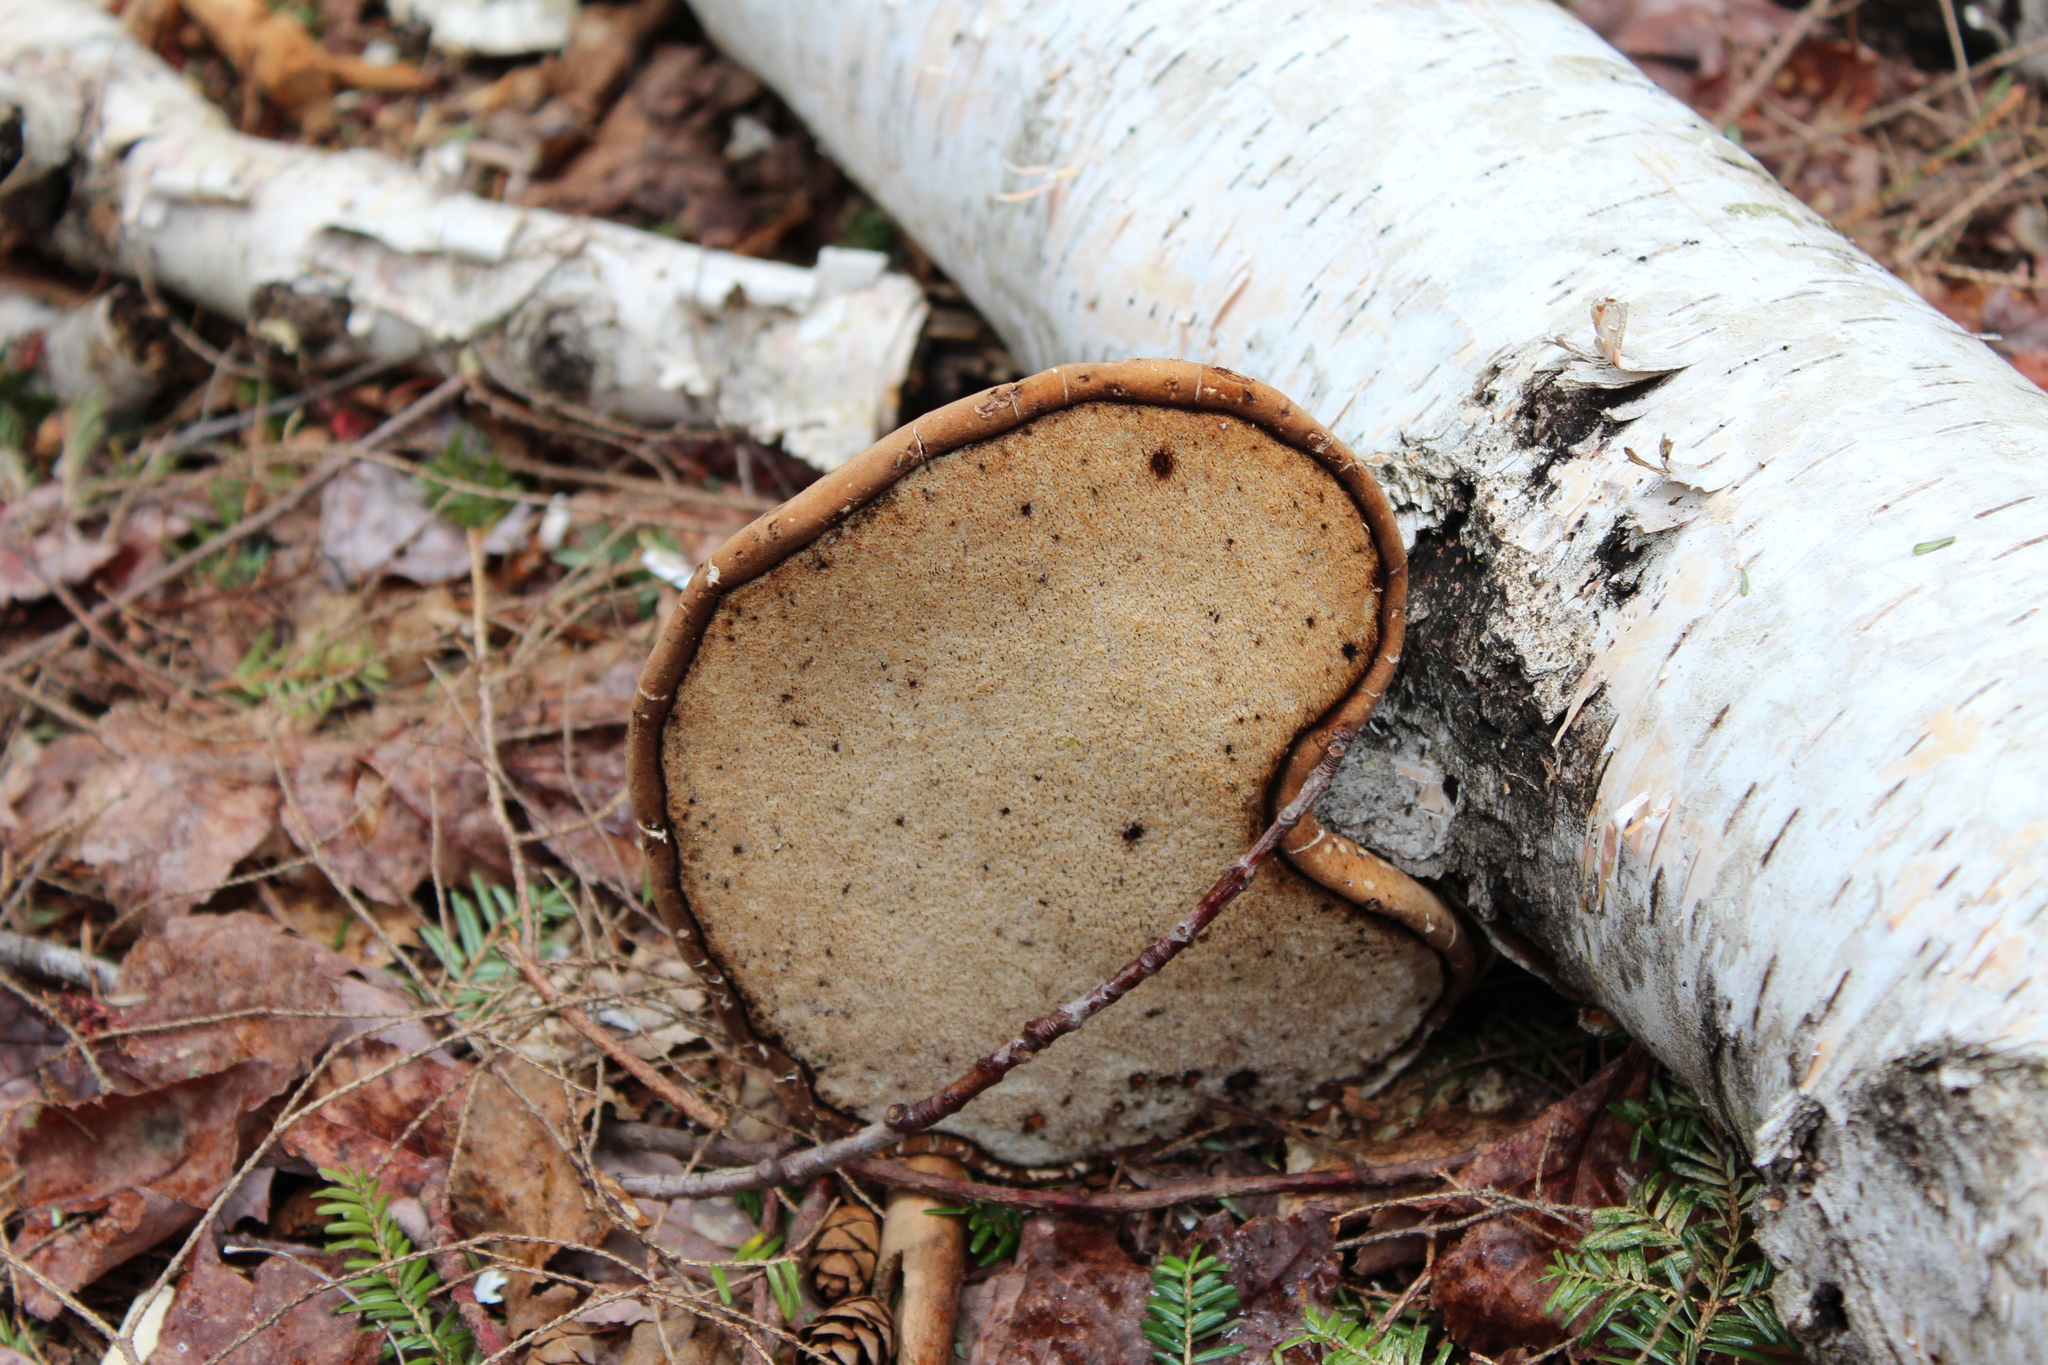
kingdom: Fungi
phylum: Basidiomycota
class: Agaricomycetes
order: Polyporales
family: Fomitopsidaceae
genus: Fomitopsis
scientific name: Fomitopsis betulina
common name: Birch polypore
